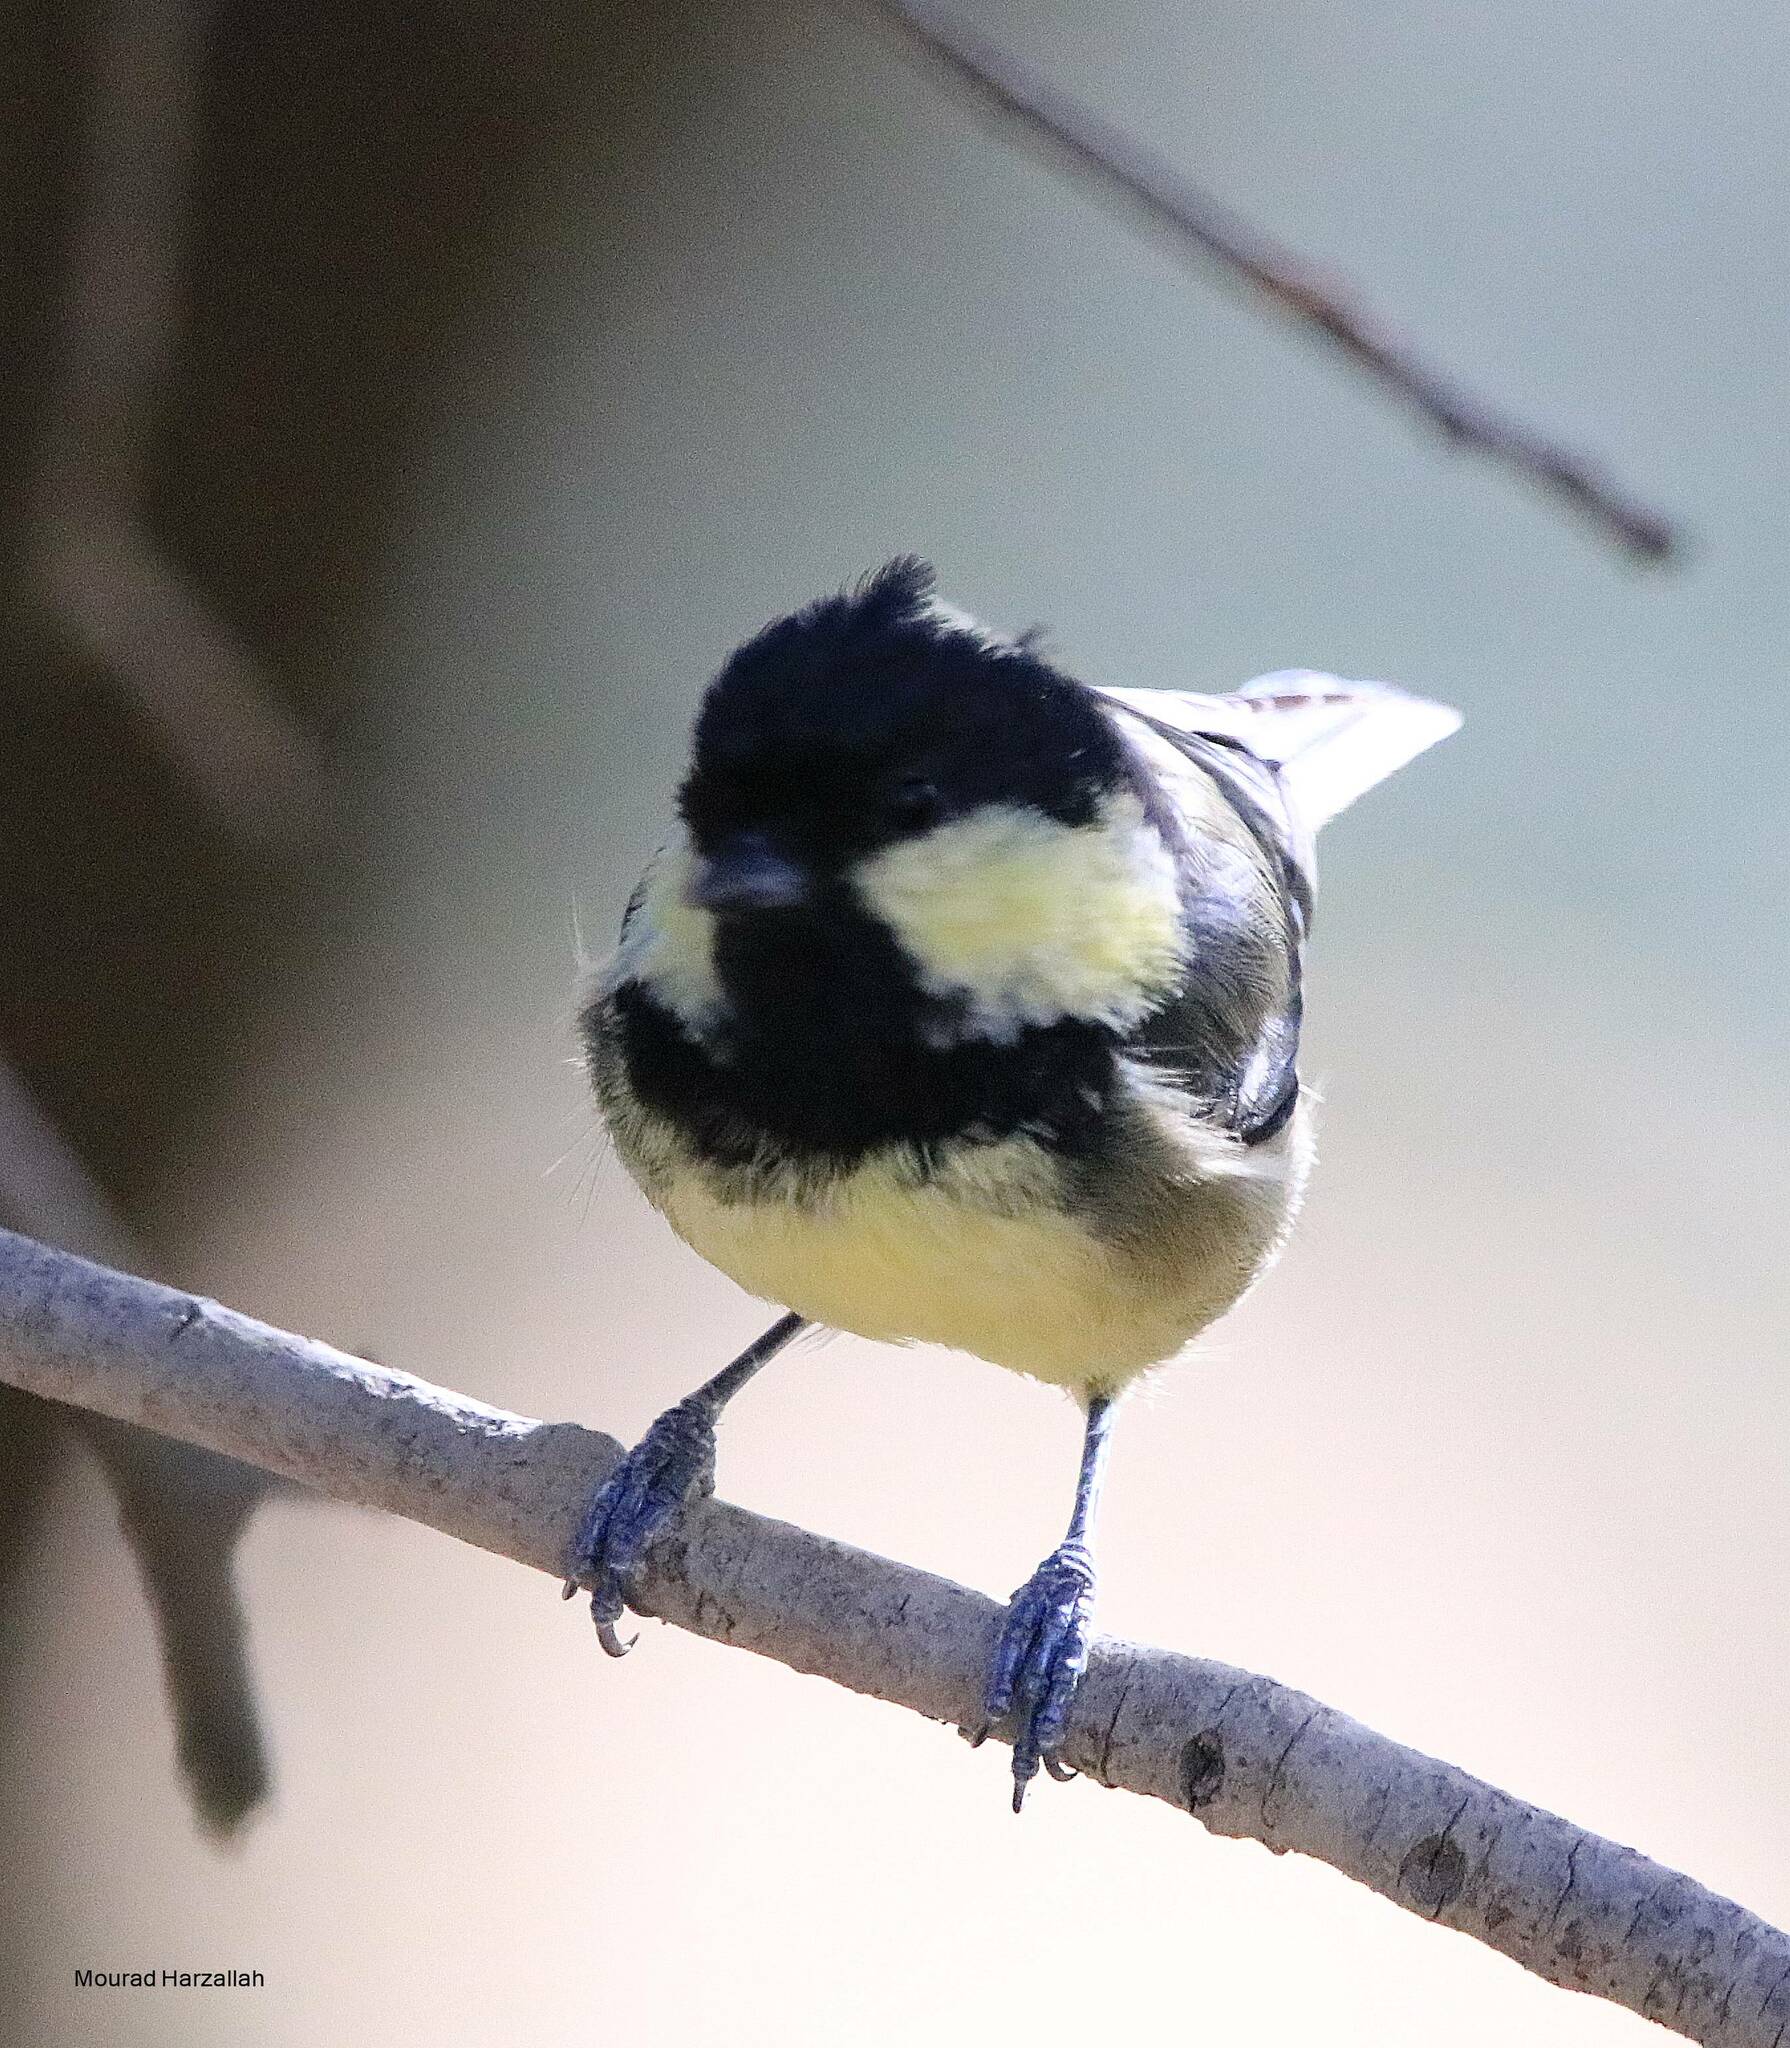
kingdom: Animalia
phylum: Chordata
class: Aves
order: Passeriformes
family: Paridae
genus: Periparus
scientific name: Periparus ater
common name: Coal tit
